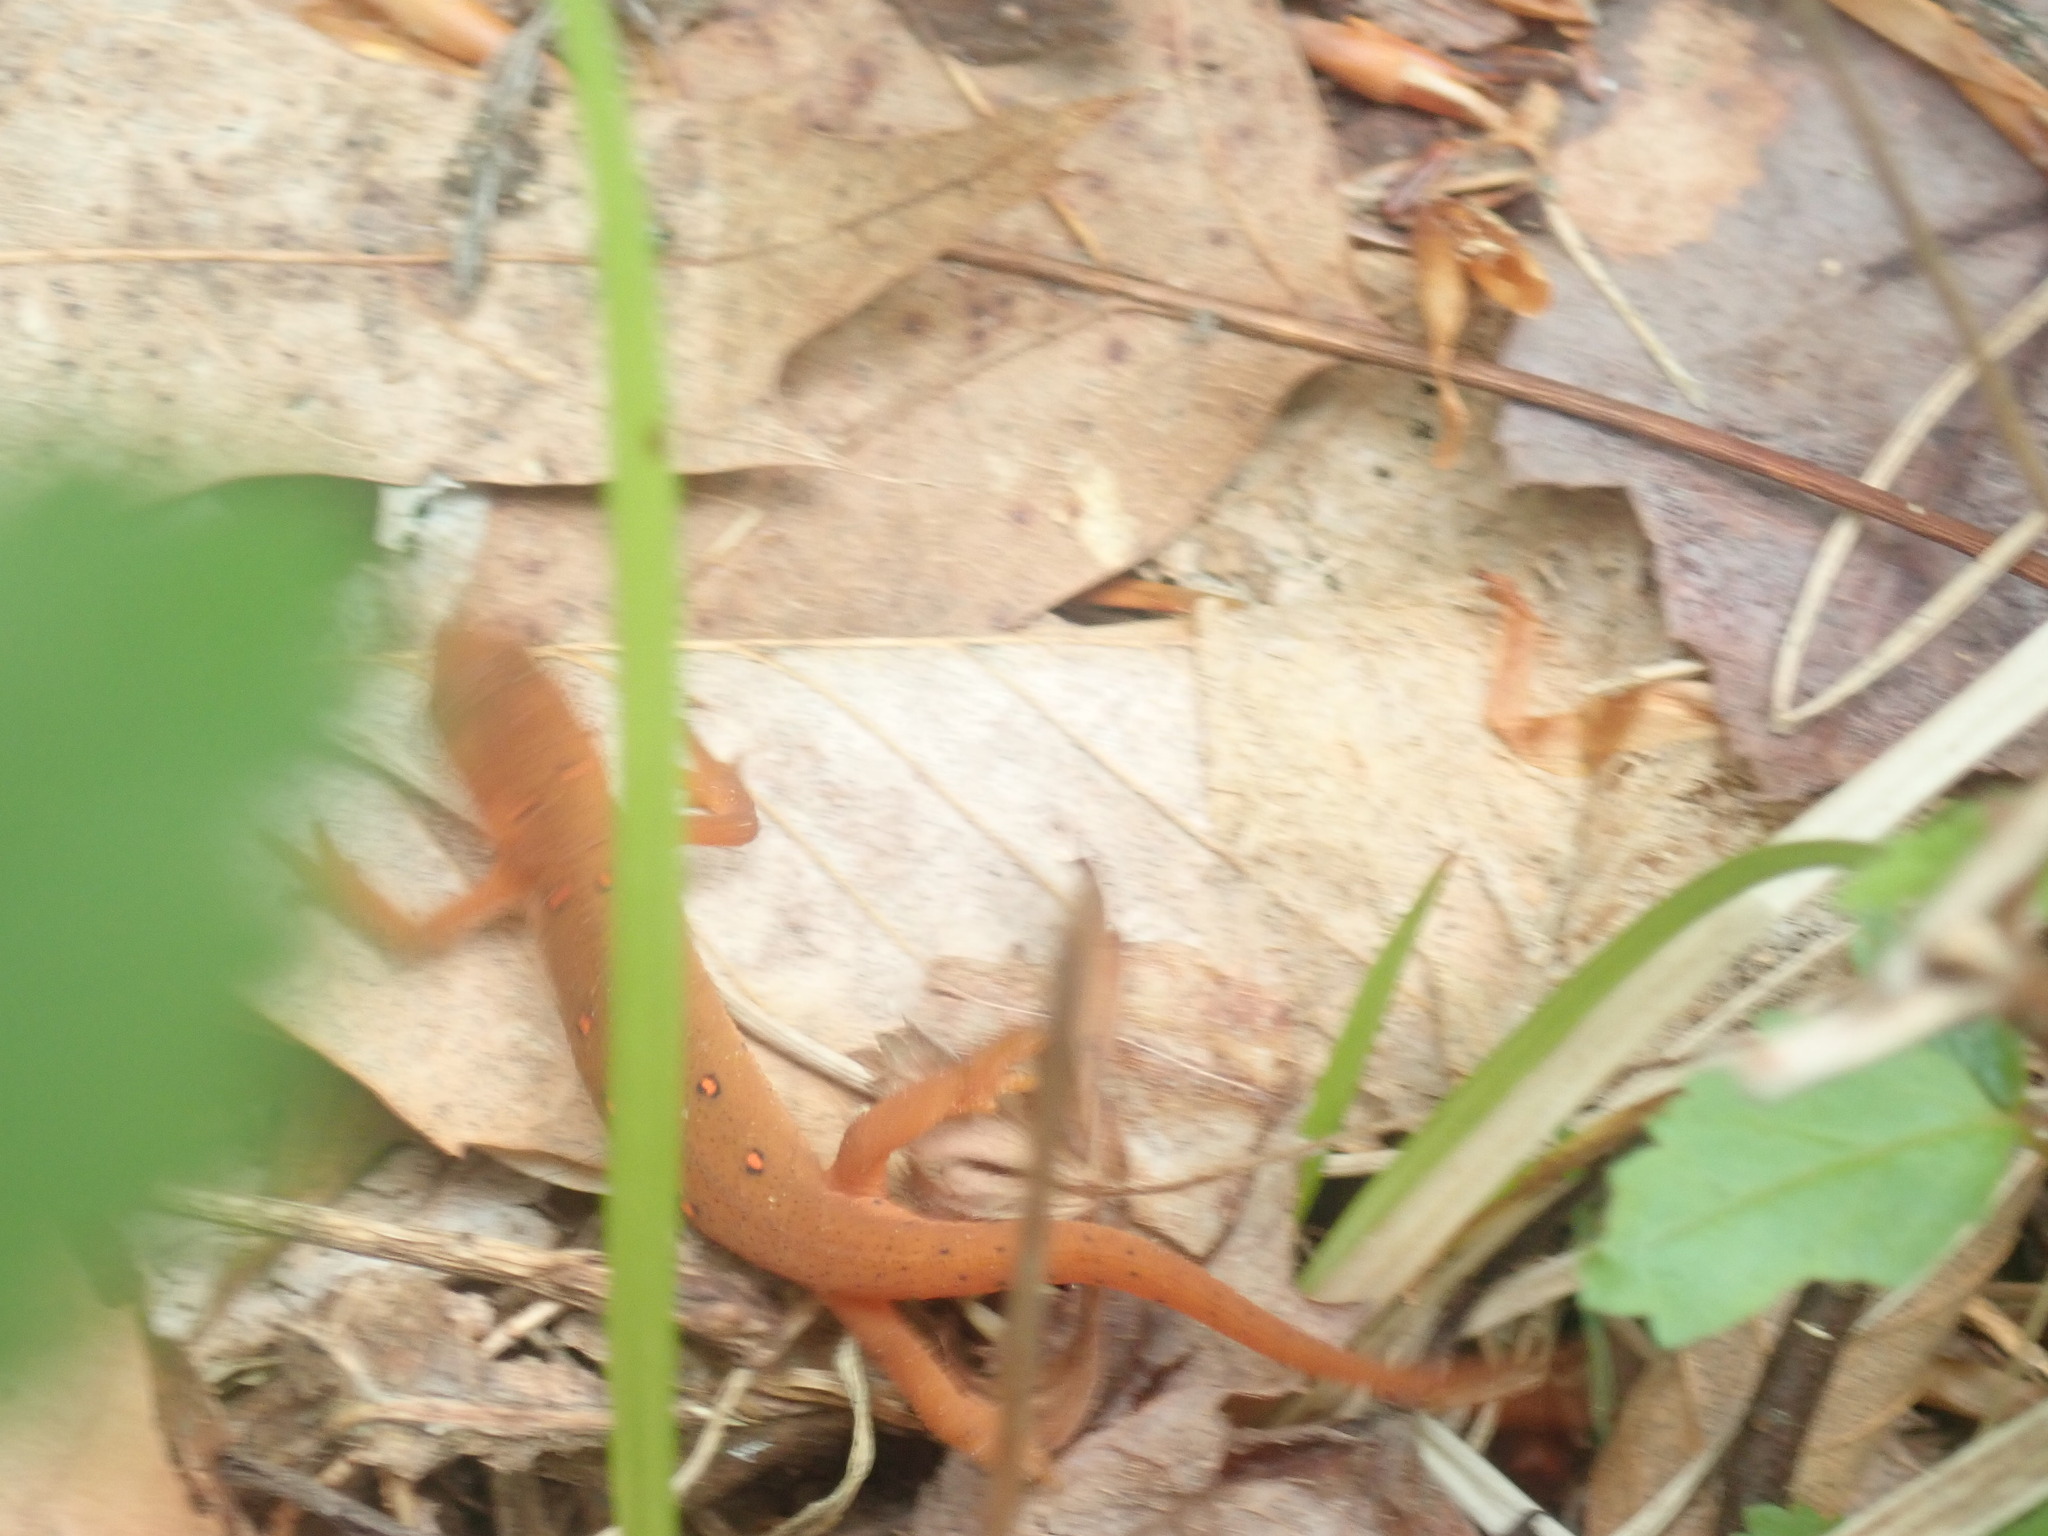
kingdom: Animalia
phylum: Chordata
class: Amphibia
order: Caudata
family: Salamandridae
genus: Notophthalmus
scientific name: Notophthalmus viridescens
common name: Eastern newt
